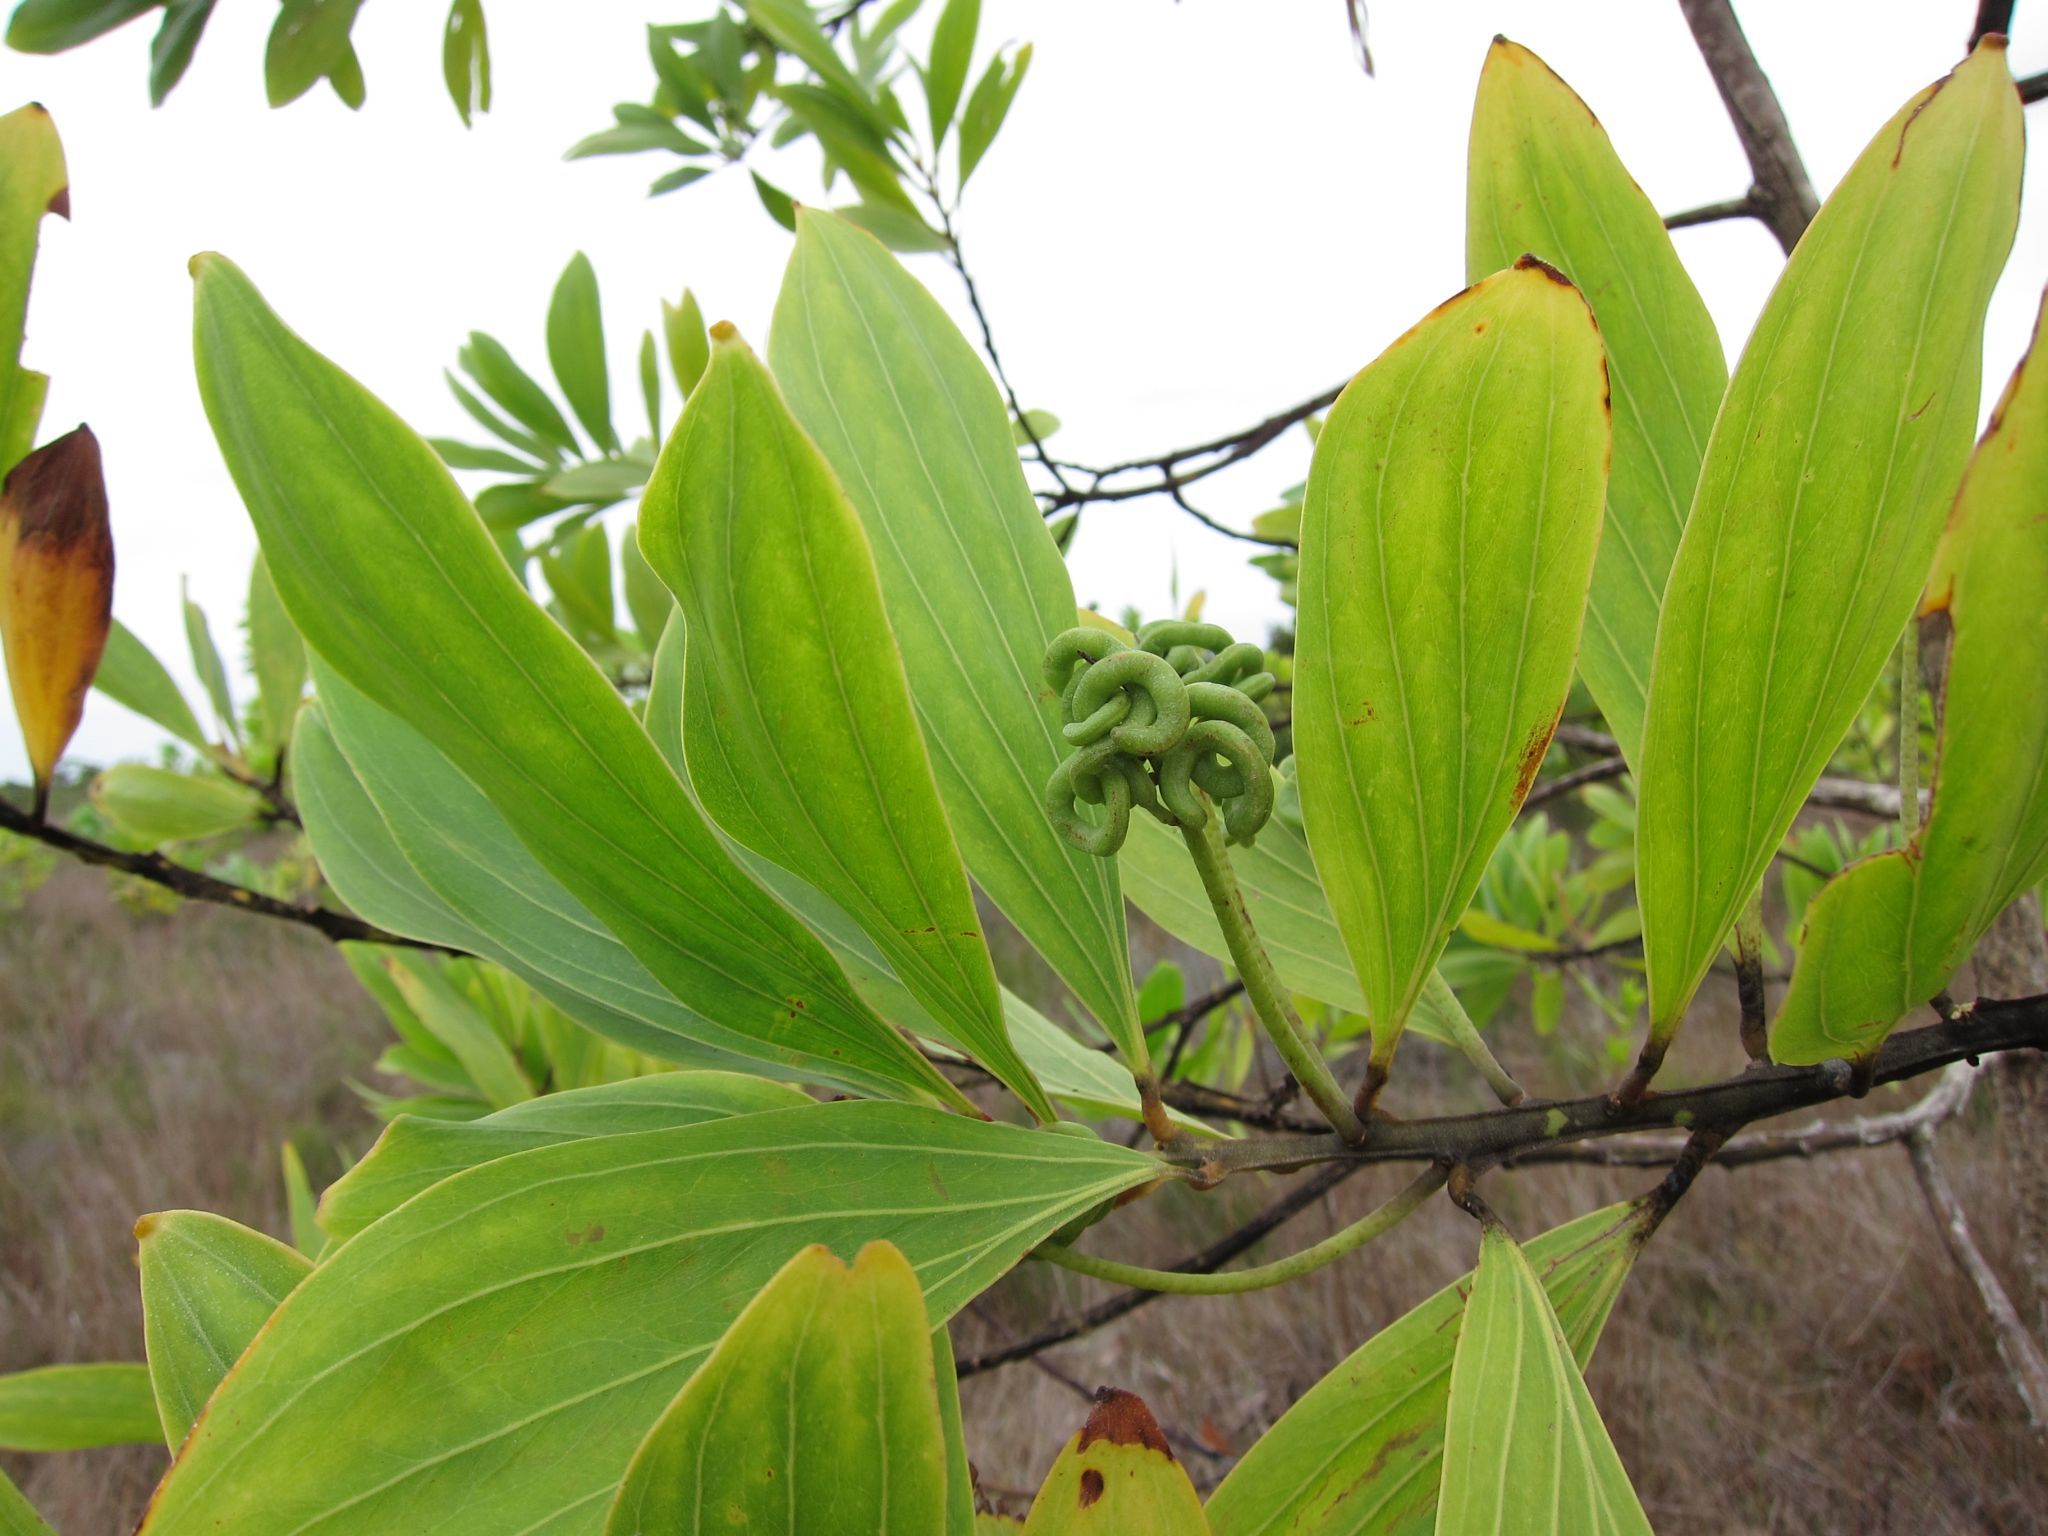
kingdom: Plantae
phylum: Tracheophyta
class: Magnoliopsida
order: Fabales
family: Fabaceae
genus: Acacia
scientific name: Acacia mangium
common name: Black wattle
